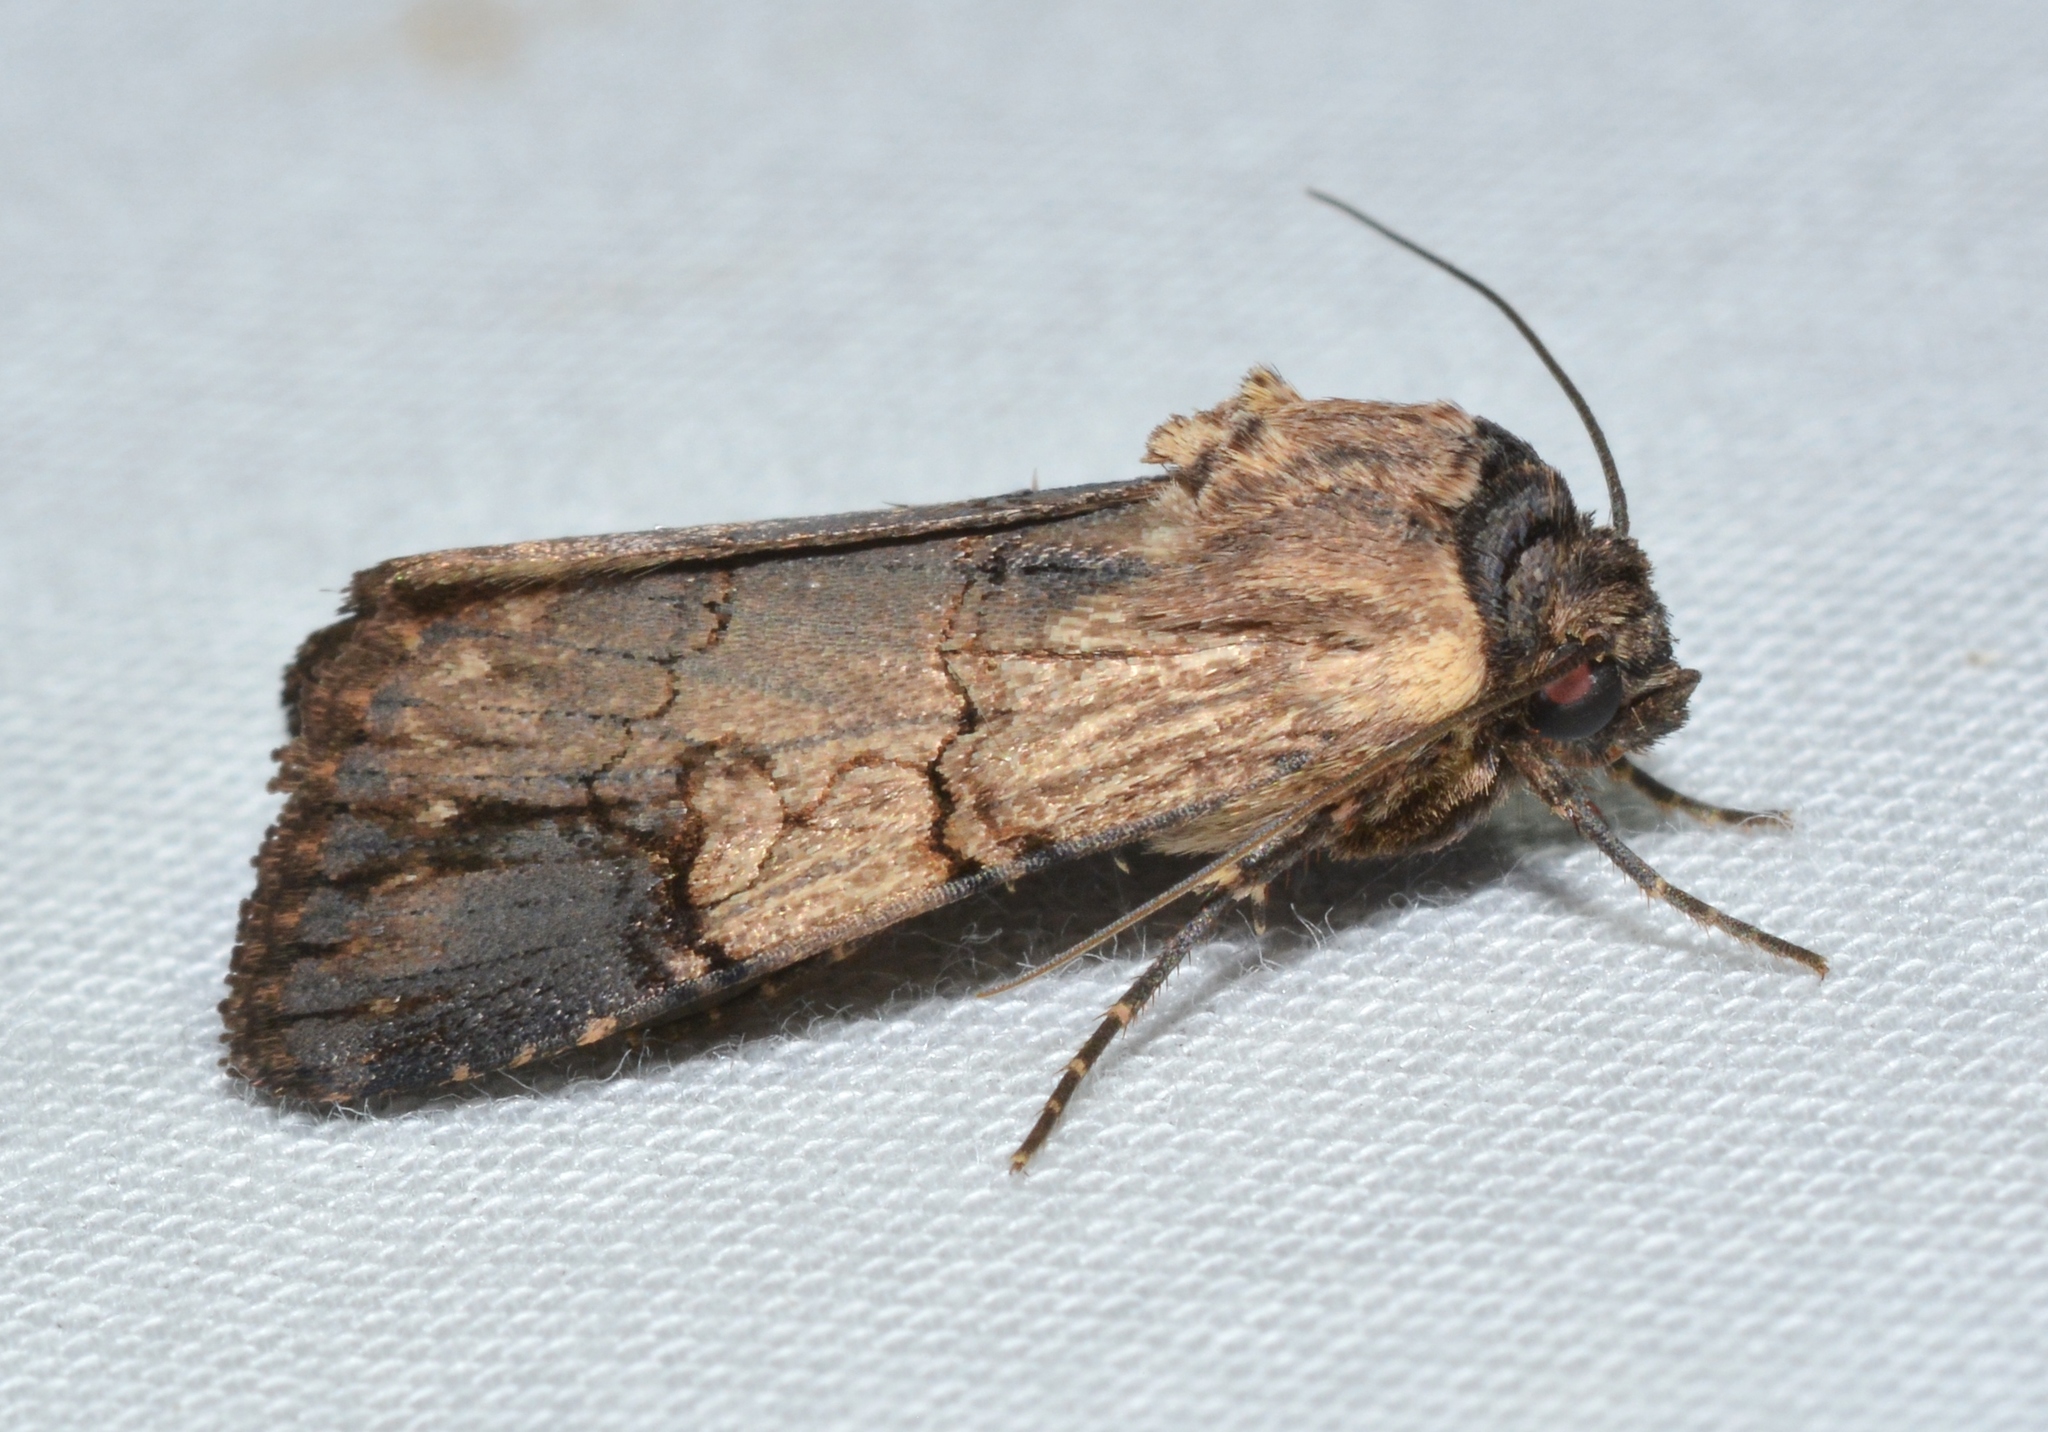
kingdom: Animalia
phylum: Arthropoda
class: Insecta
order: Lepidoptera
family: Noctuidae
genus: Dichagyris
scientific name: Dichagyris grotei
